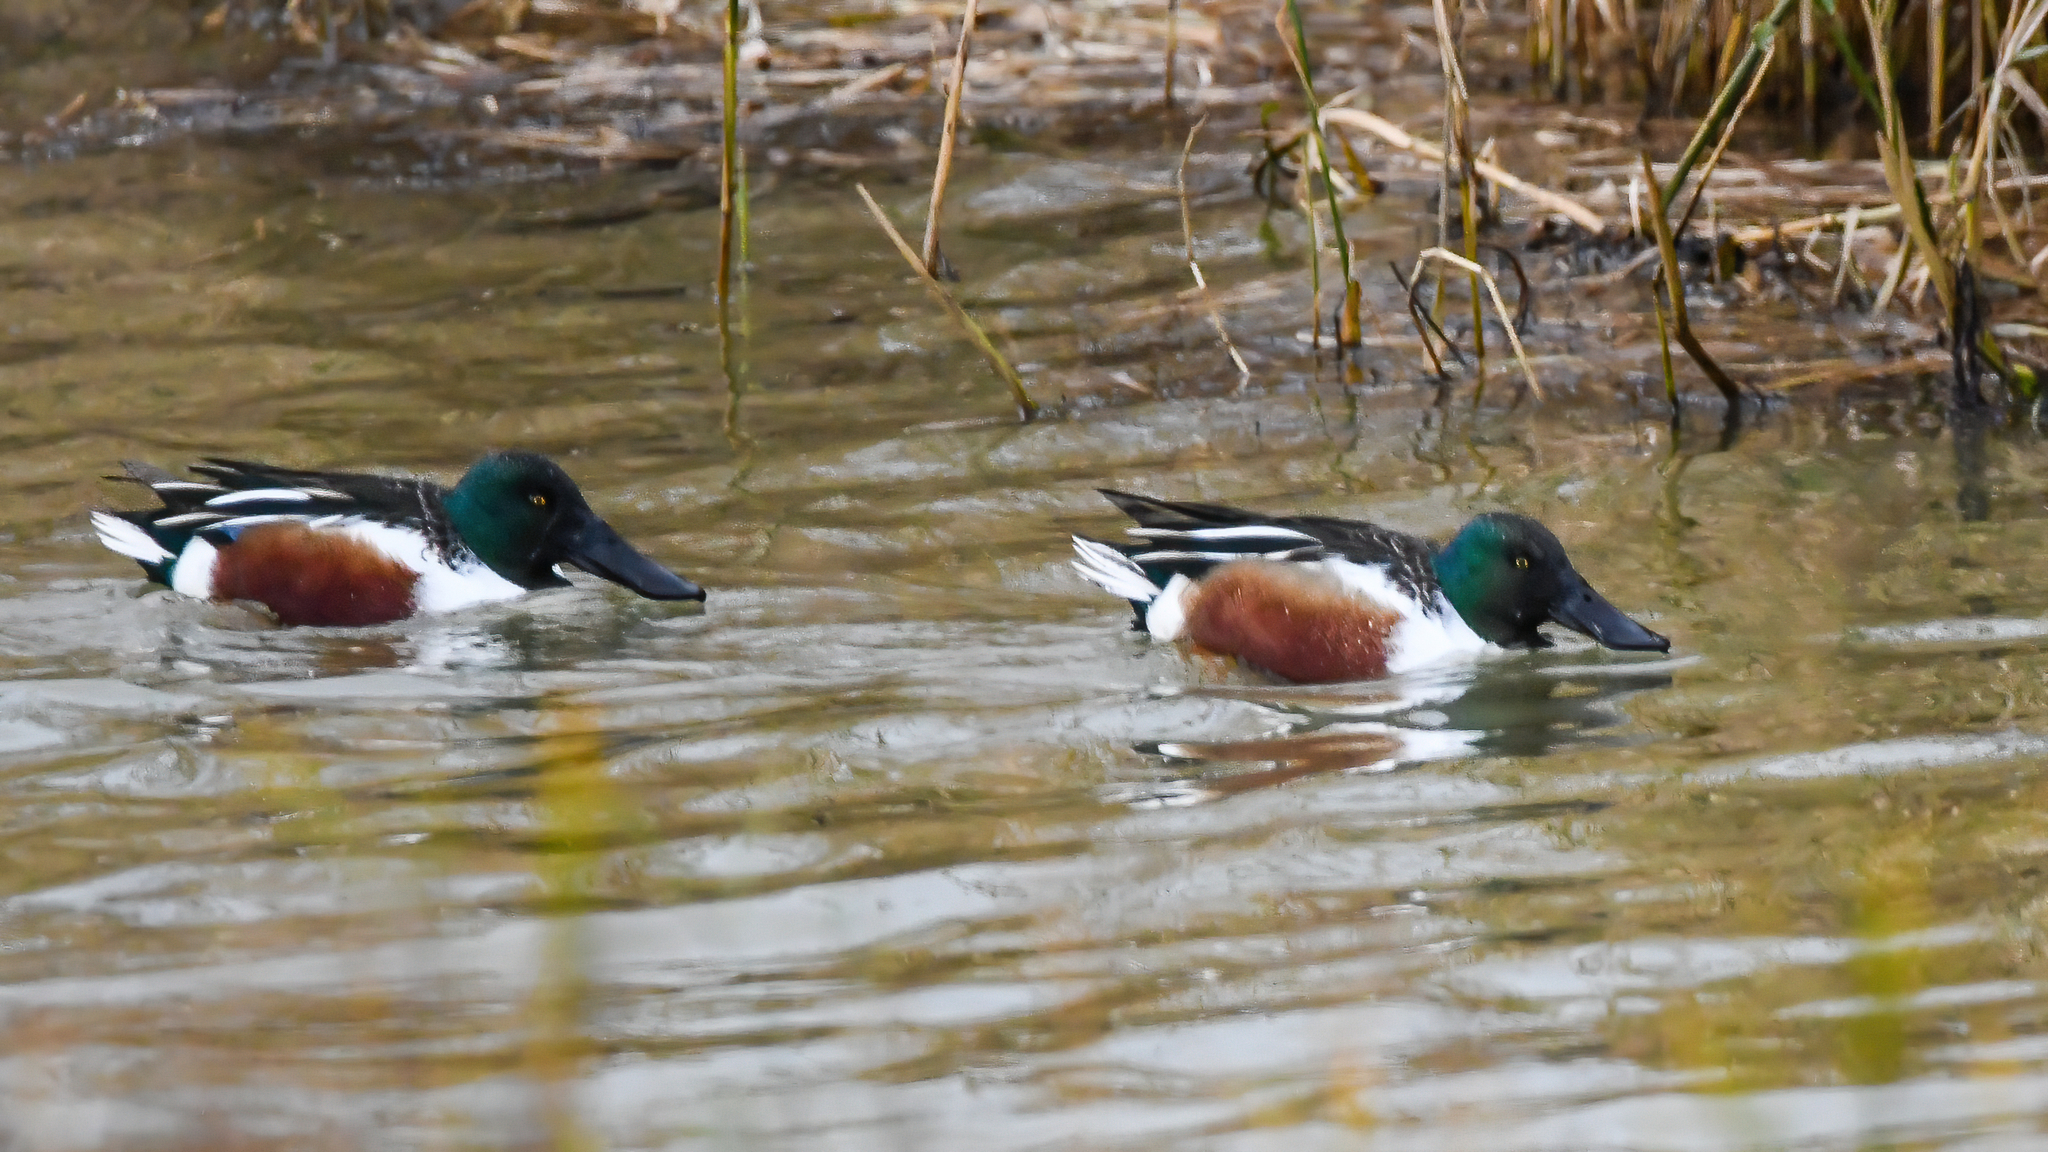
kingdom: Animalia
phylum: Chordata
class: Aves
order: Anseriformes
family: Anatidae
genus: Spatula
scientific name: Spatula clypeata
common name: Northern shoveler
